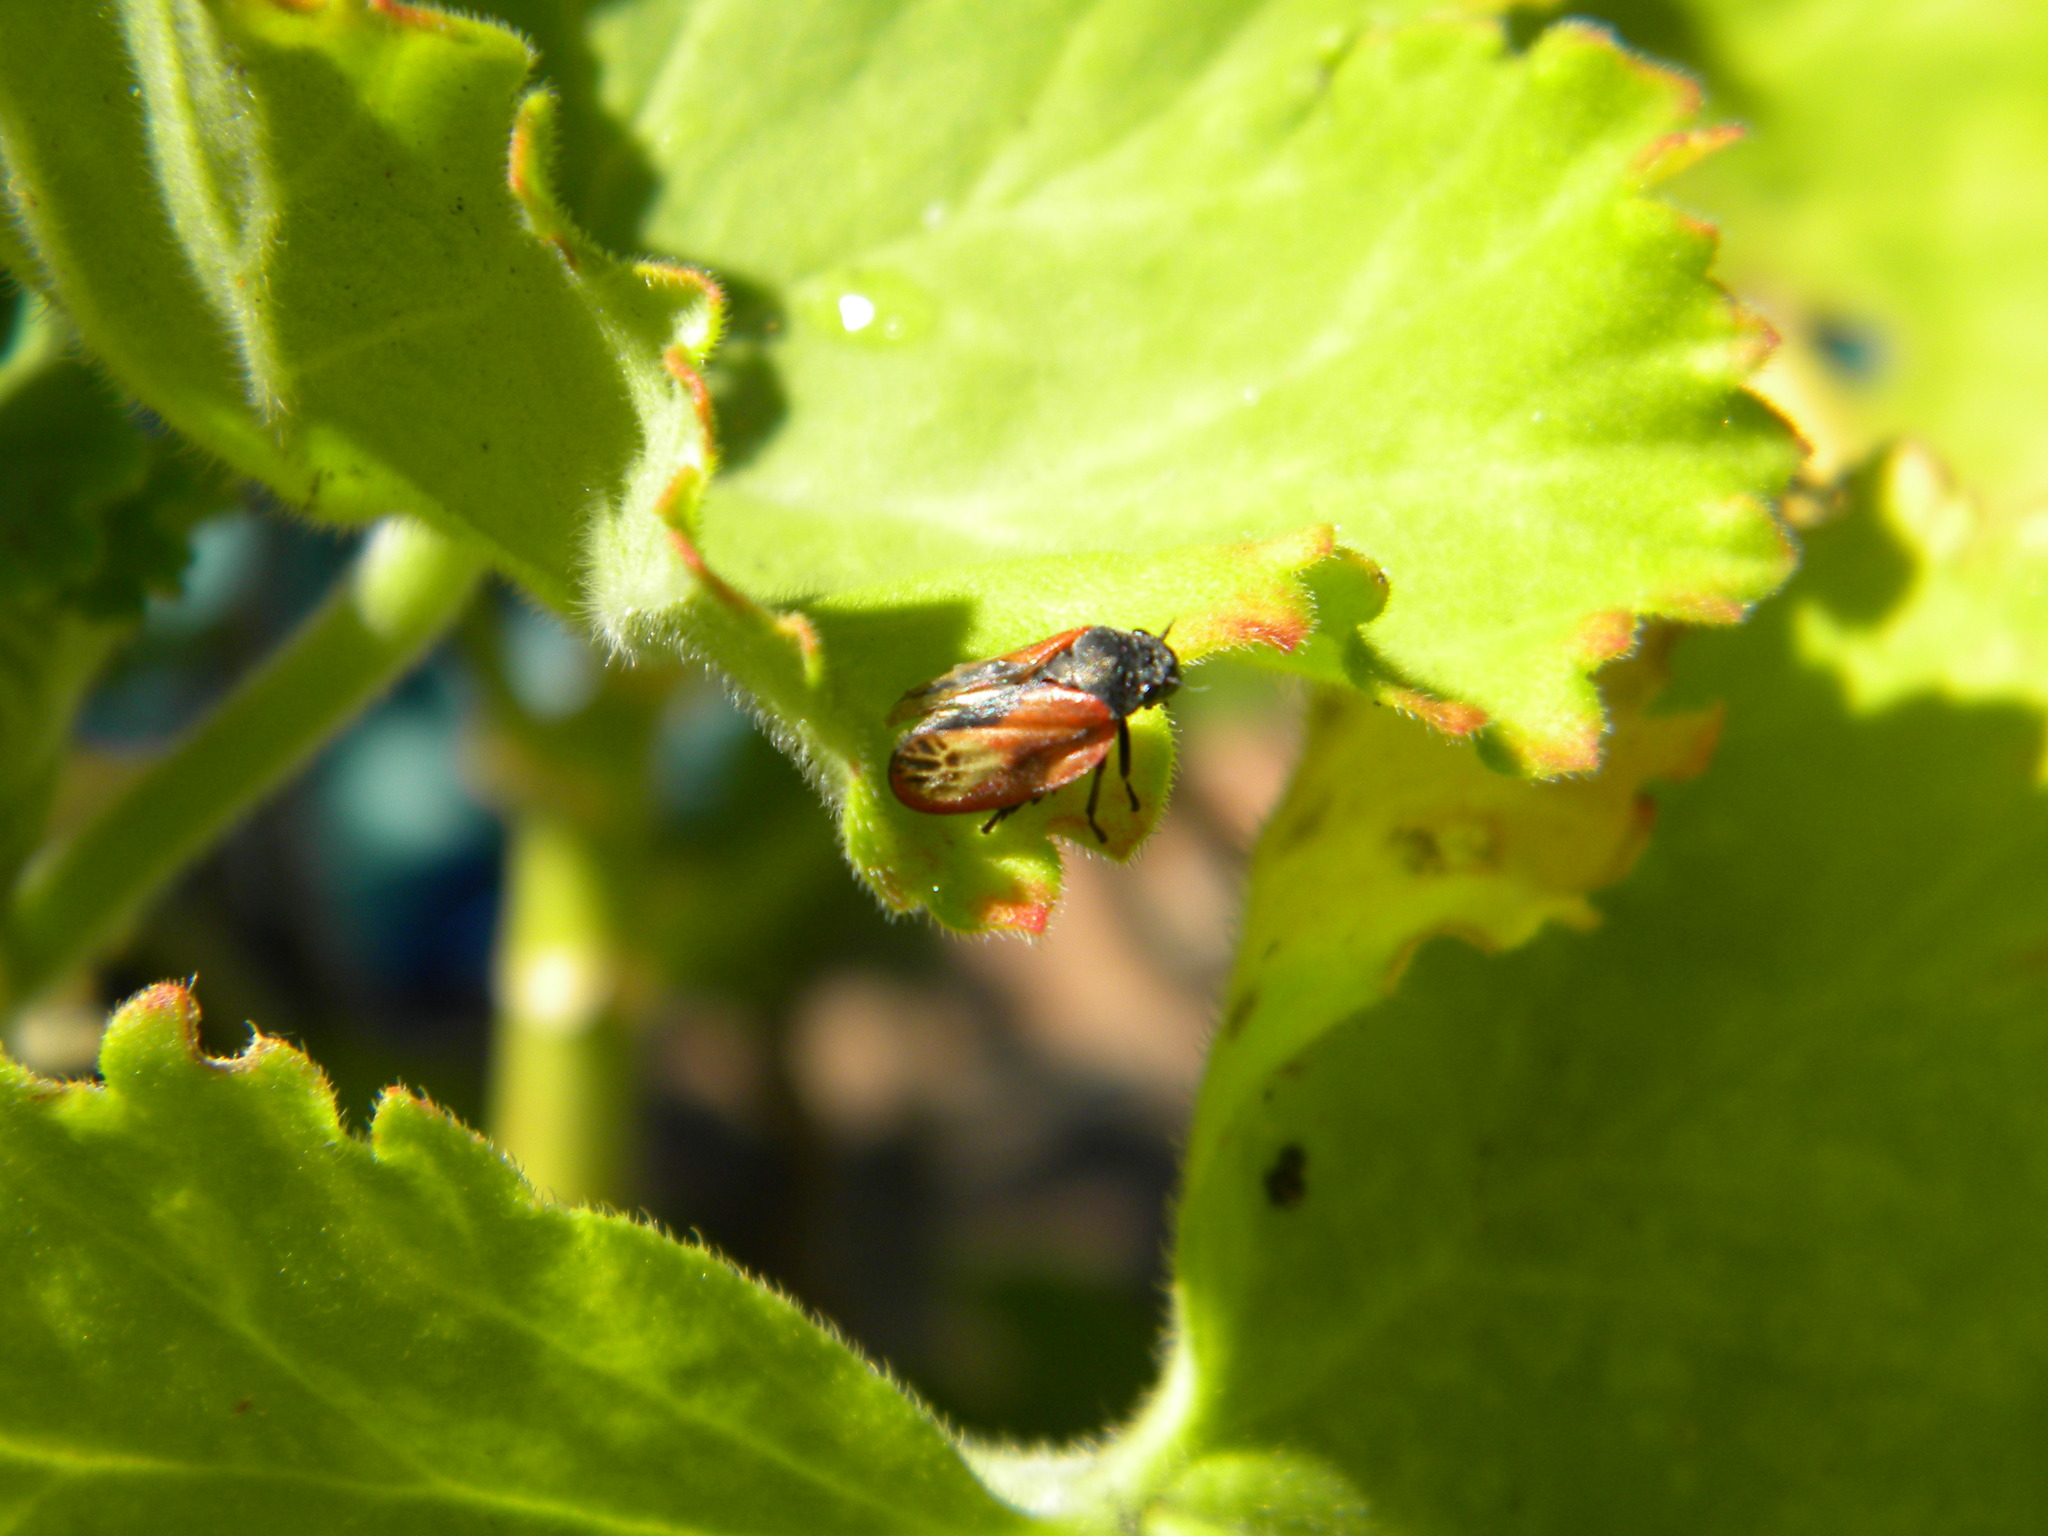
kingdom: Animalia
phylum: Arthropoda
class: Insecta
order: Hemiptera
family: Cercopidae
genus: Rhinaulax
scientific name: Rhinaulax analis
